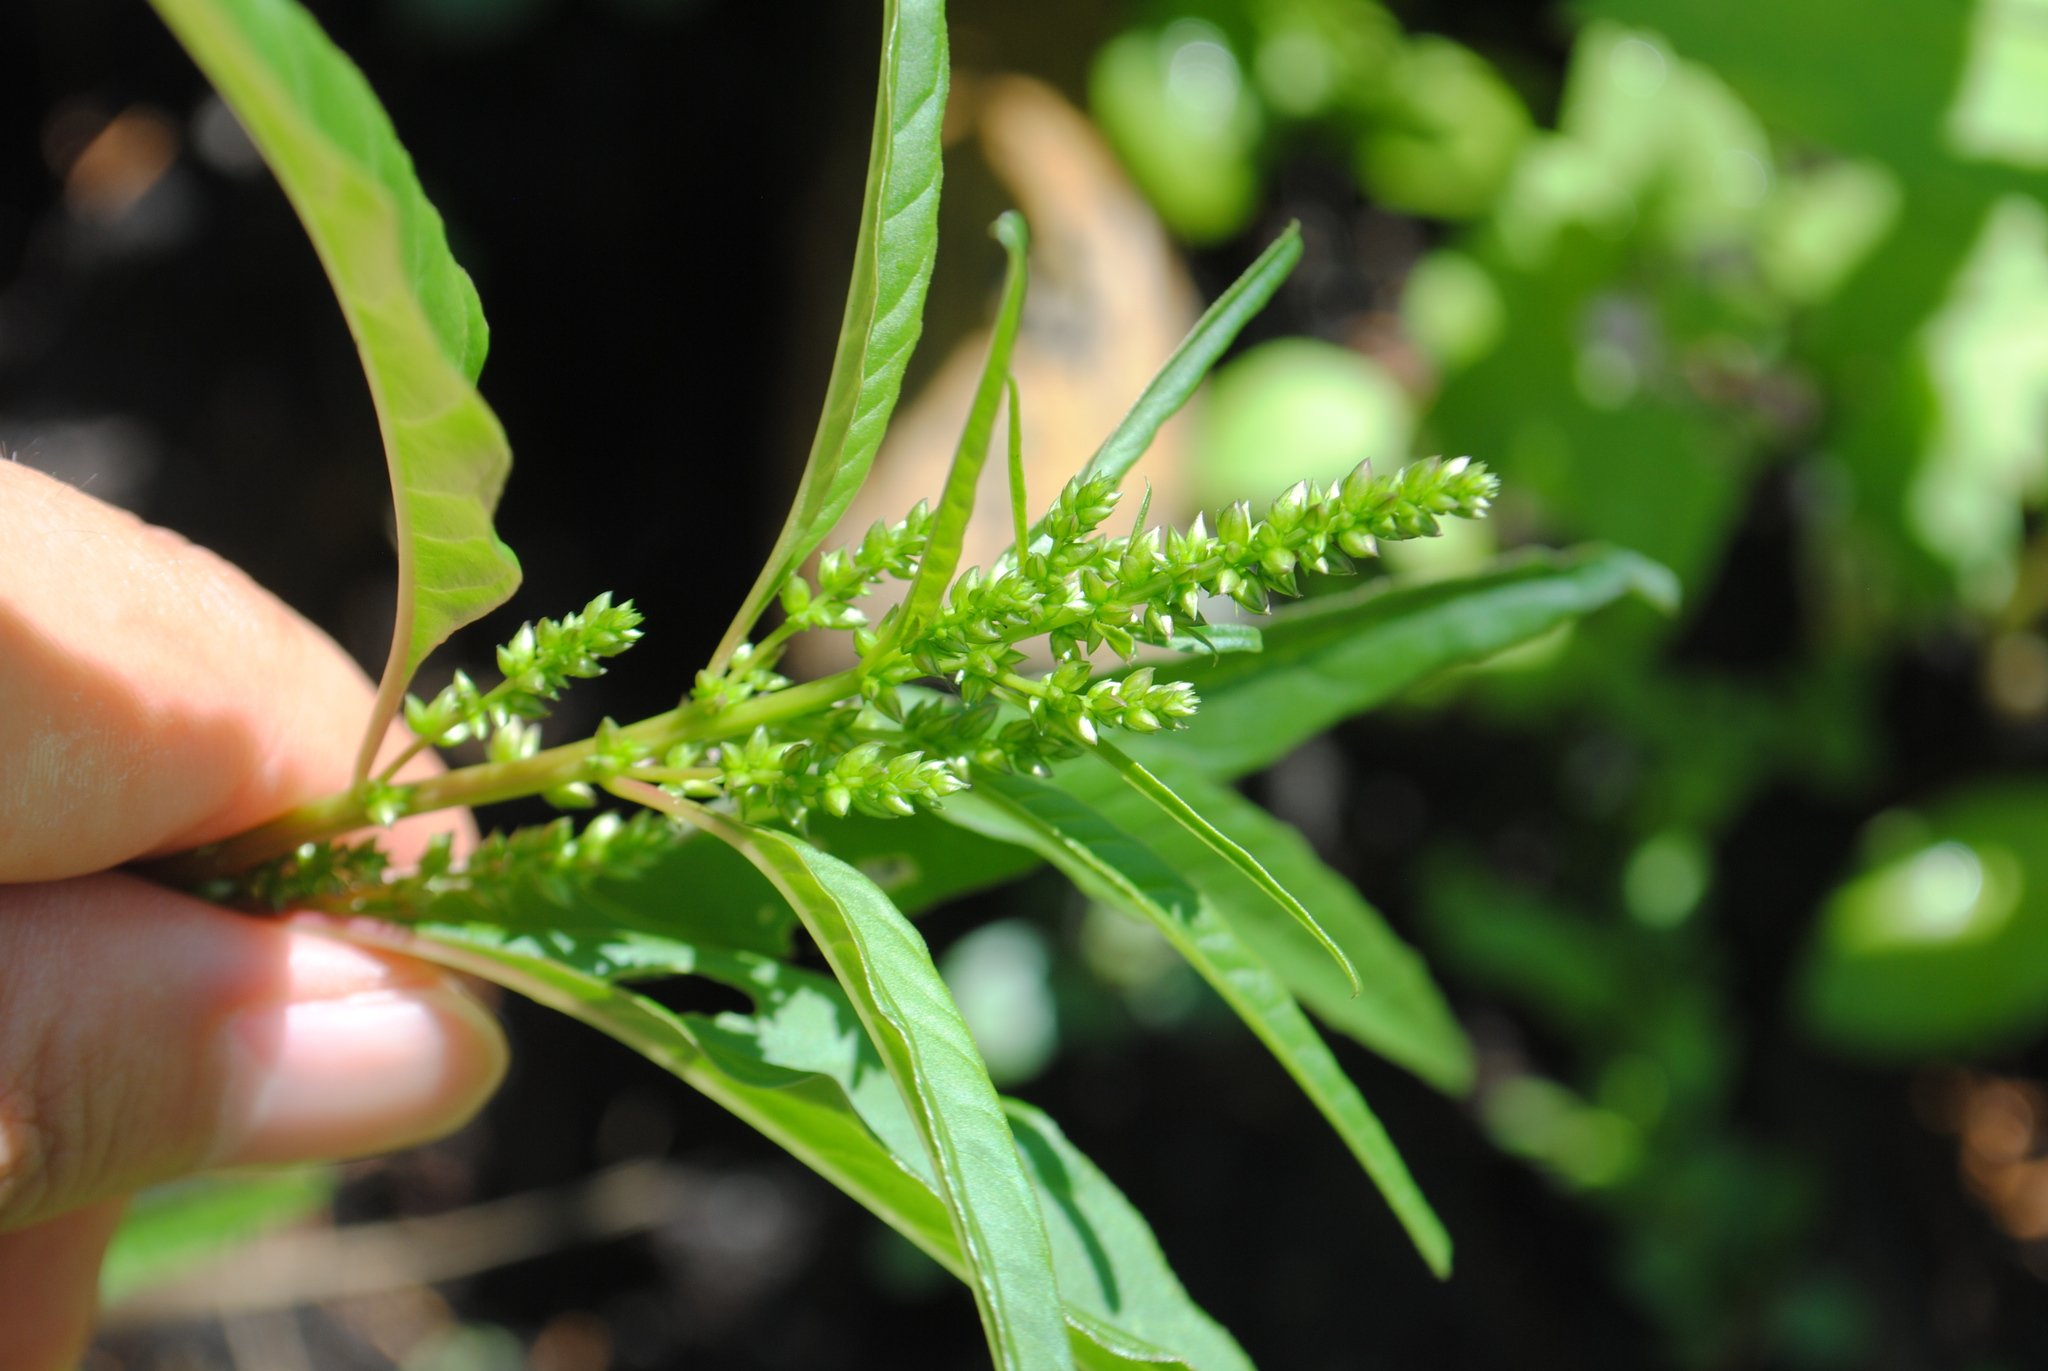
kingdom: Plantae
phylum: Tracheophyta
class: Magnoliopsida
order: Caryophyllales
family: Amaranthaceae
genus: Amaranthus
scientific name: Amaranthus cannabinus
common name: Salt-marsh water-hemp
